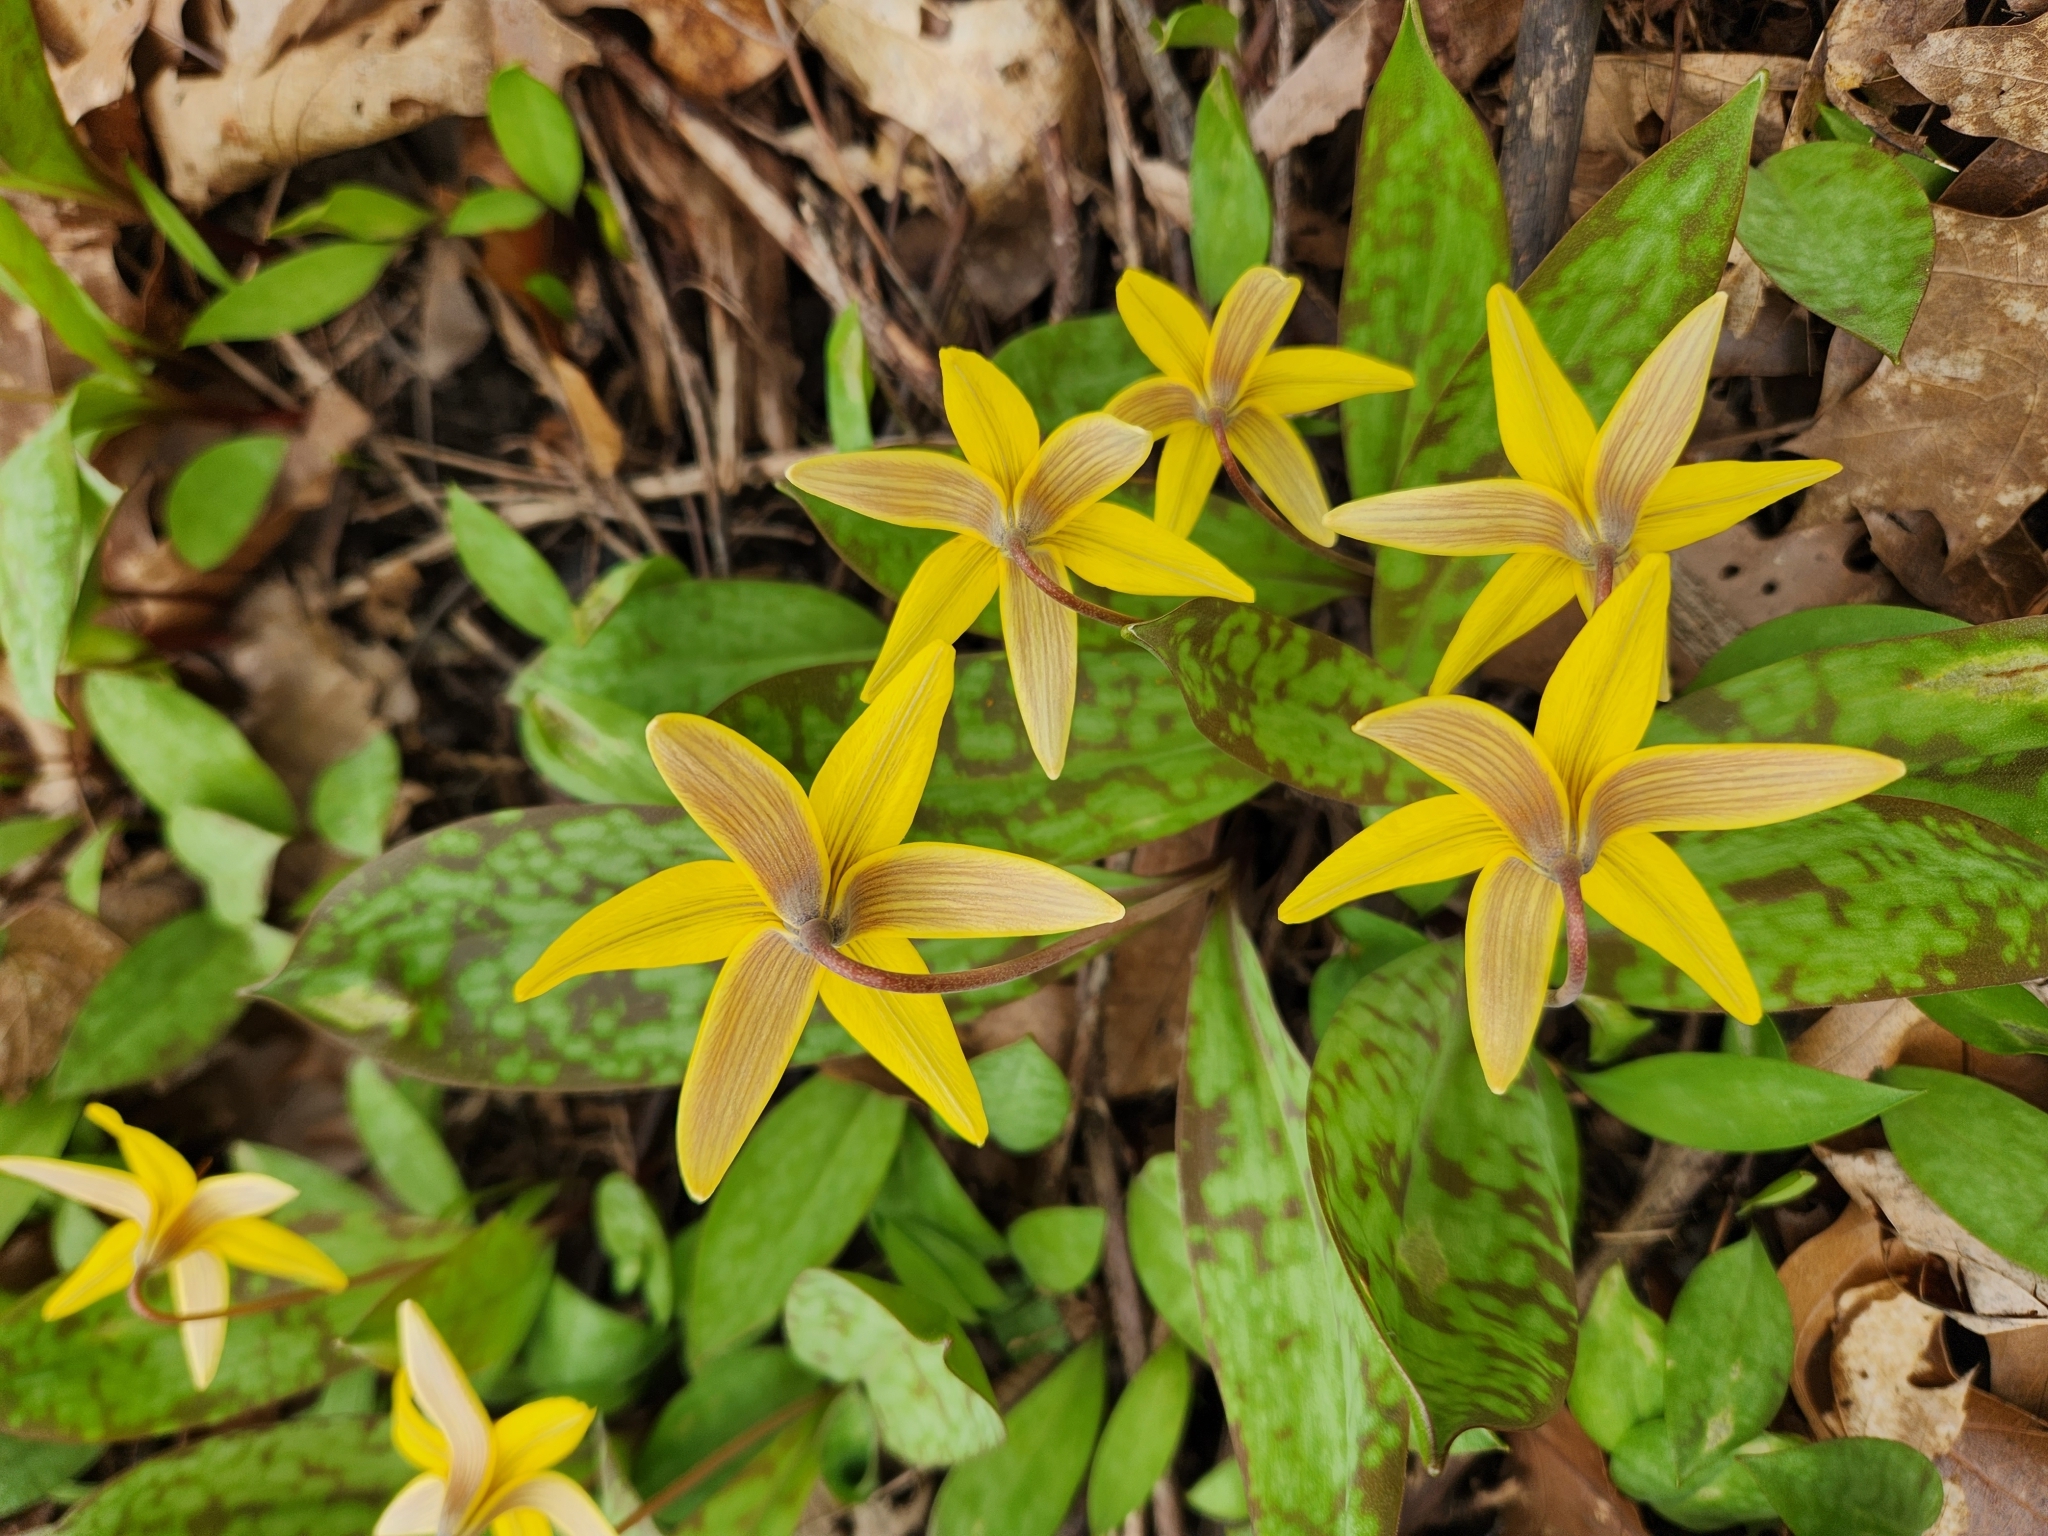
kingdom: Plantae
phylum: Tracheophyta
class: Liliopsida
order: Liliales
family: Liliaceae
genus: Erythronium
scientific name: Erythronium americanum
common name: Yellow adder's-tongue
